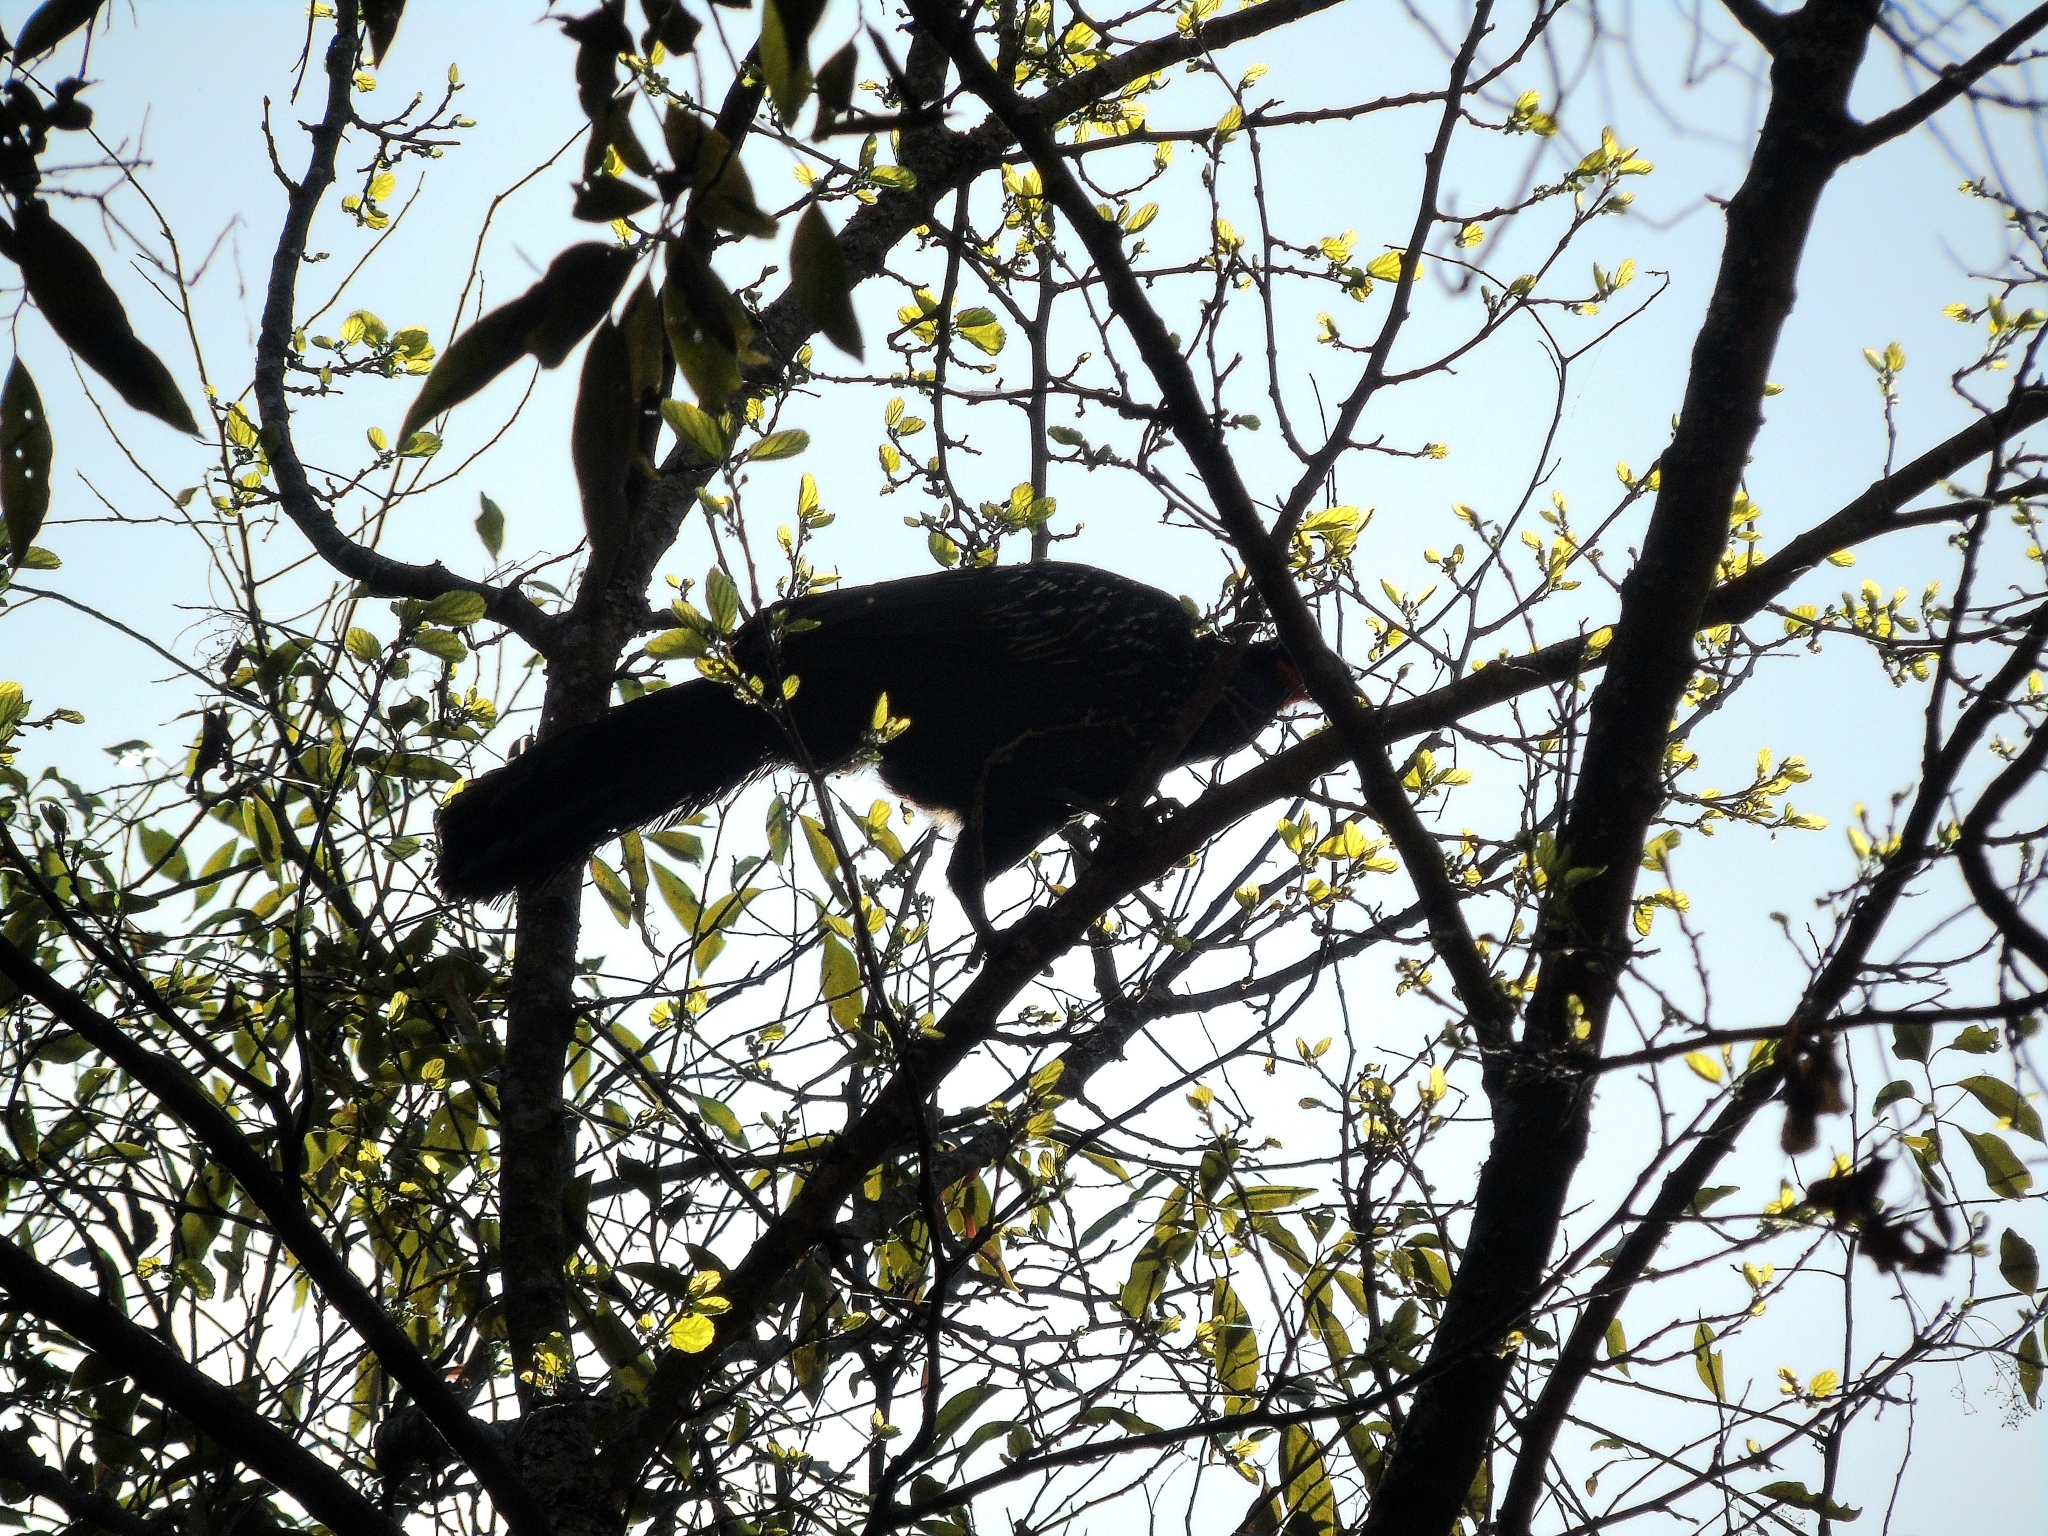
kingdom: Animalia
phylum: Chordata
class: Aves
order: Galliformes
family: Cracidae
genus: Penelope
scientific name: Penelope bridgesi
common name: Yungas guan
